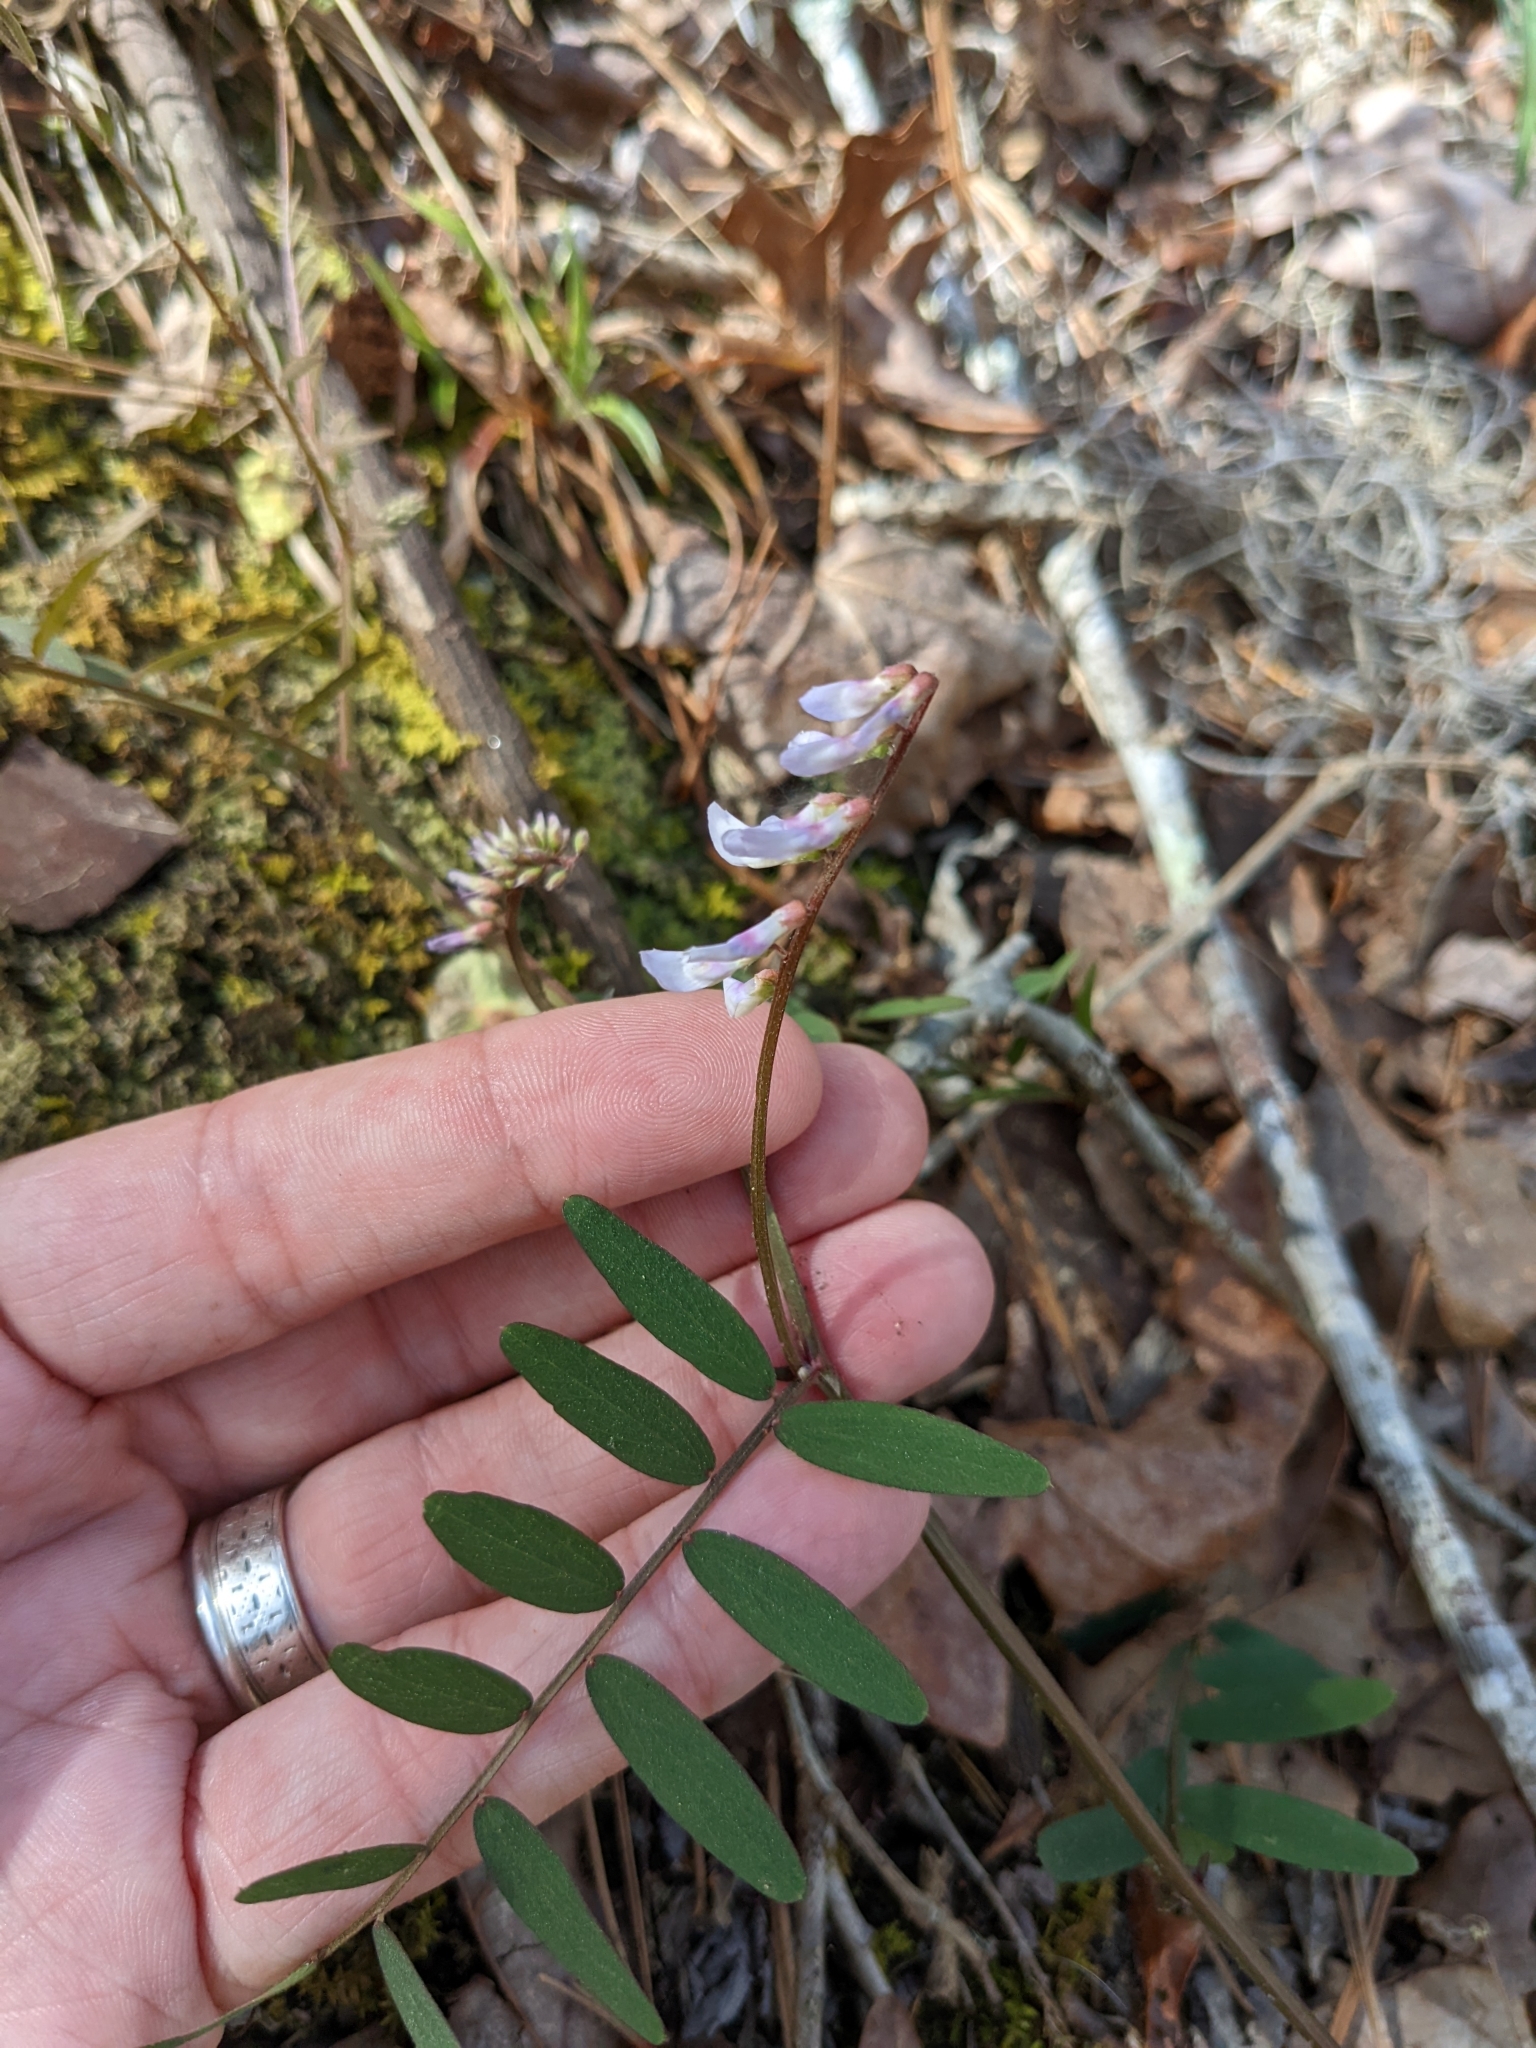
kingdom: Plantae
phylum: Tracheophyta
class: Magnoliopsida
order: Fabales
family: Fabaceae
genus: Vicia
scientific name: Vicia caroliniana
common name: Carolina vetch
